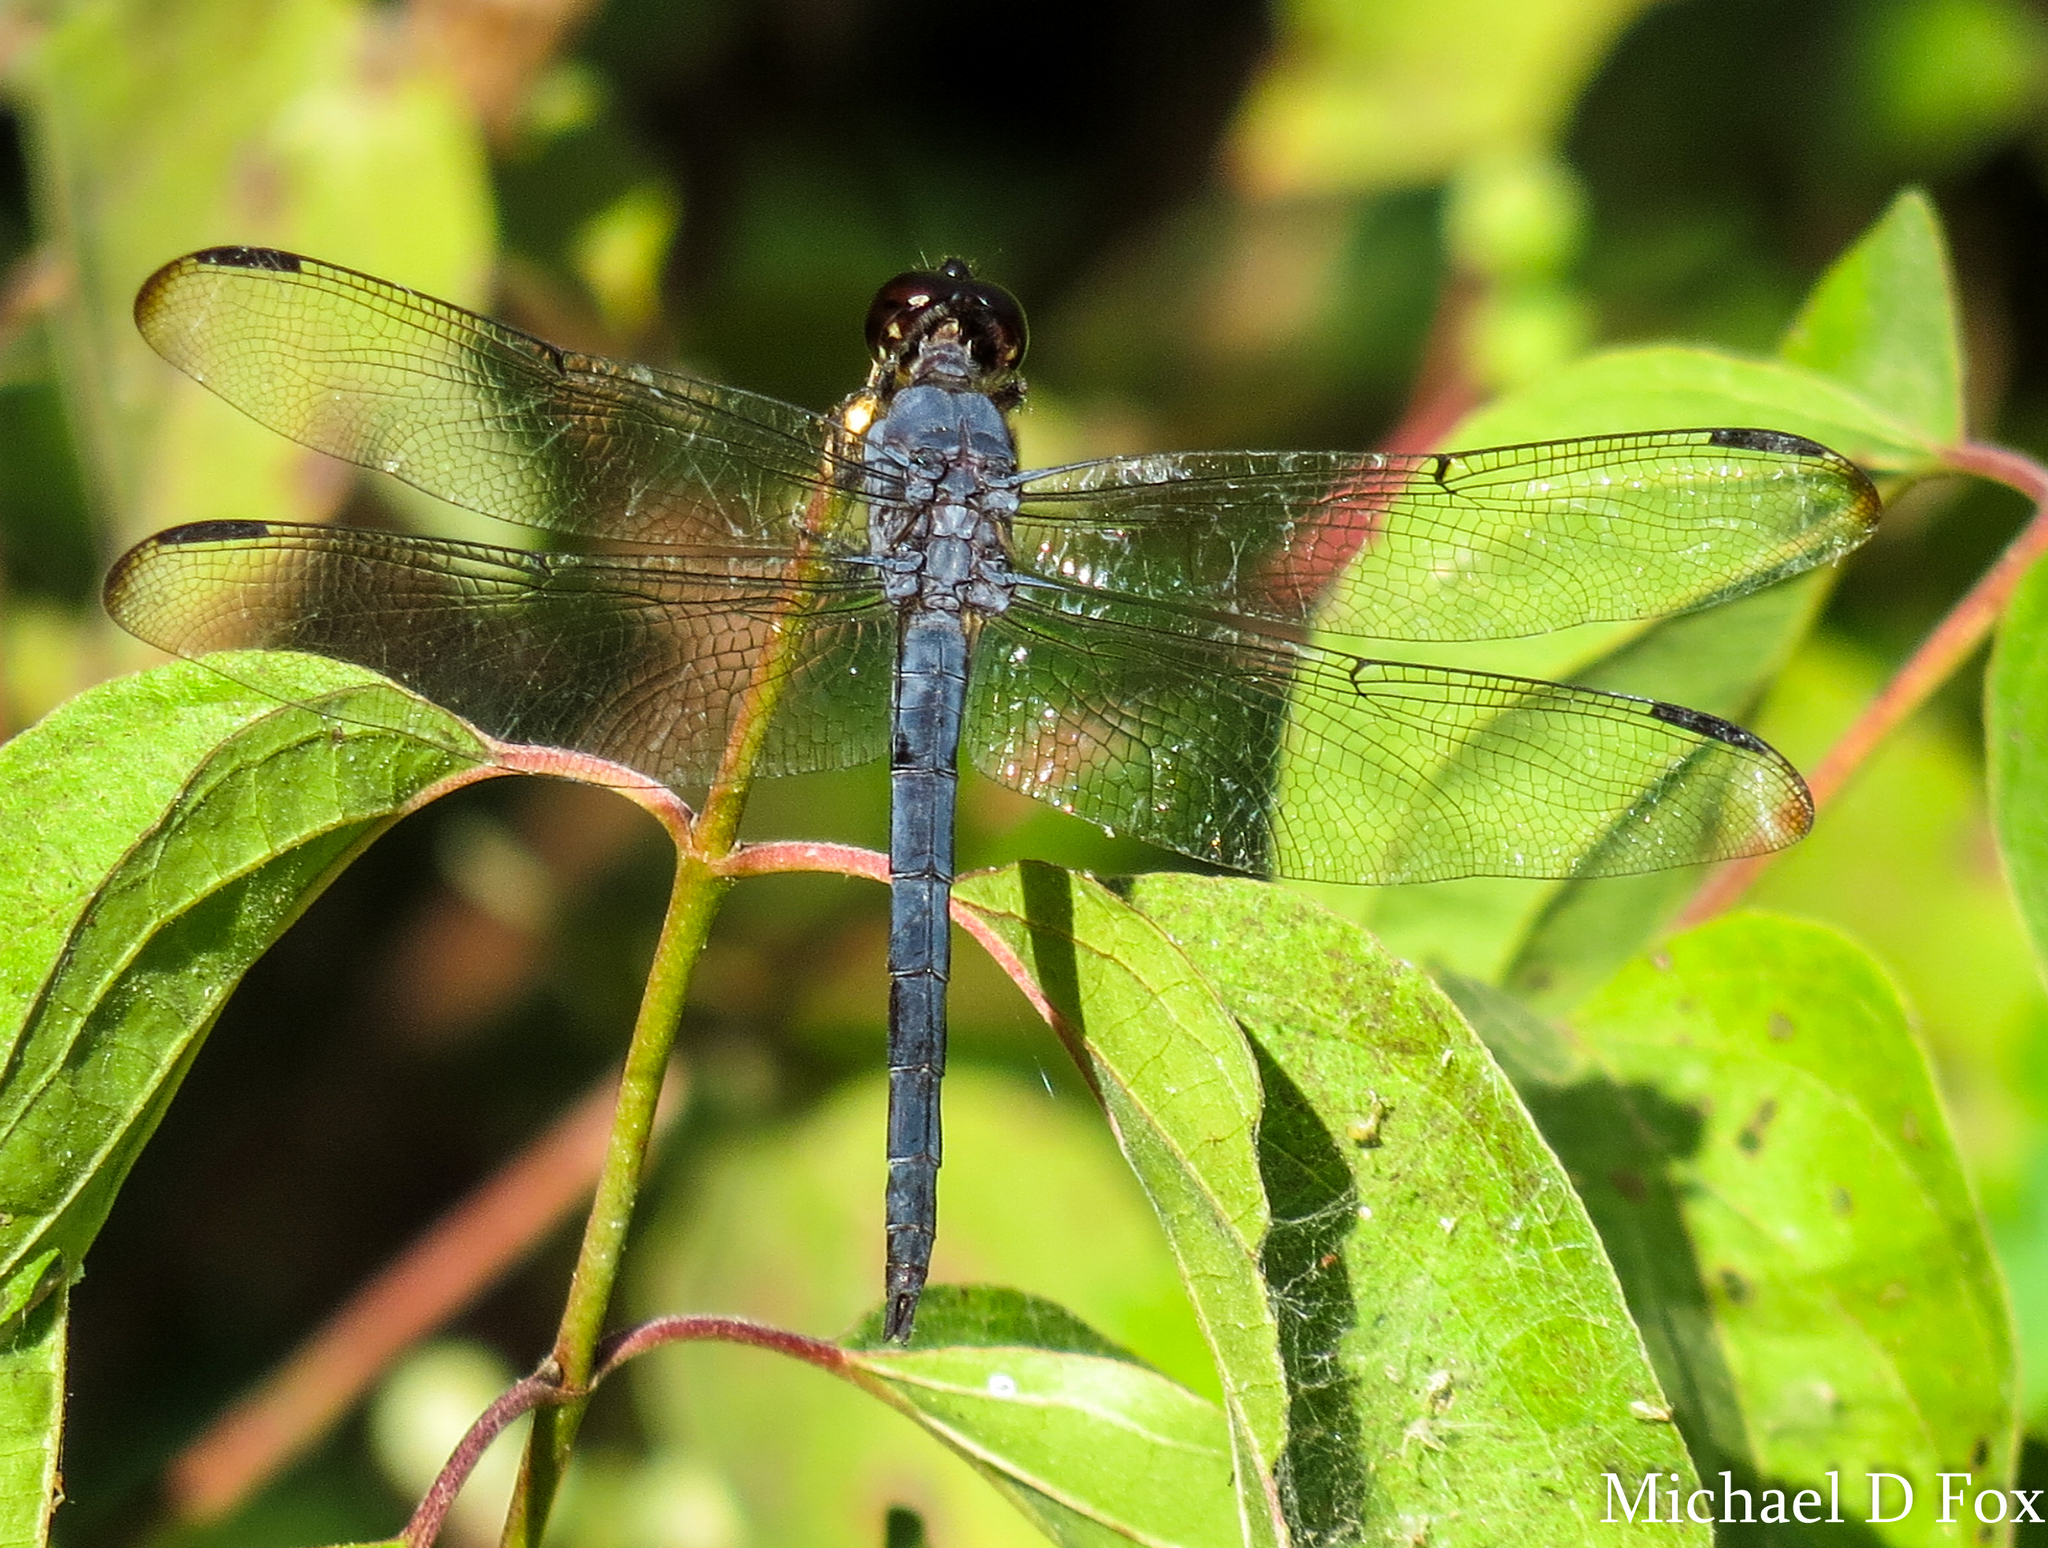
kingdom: Animalia
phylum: Arthropoda
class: Insecta
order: Odonata
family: Libellulidae
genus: Libellula
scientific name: Libellula incesta
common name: Slaty skimmer
